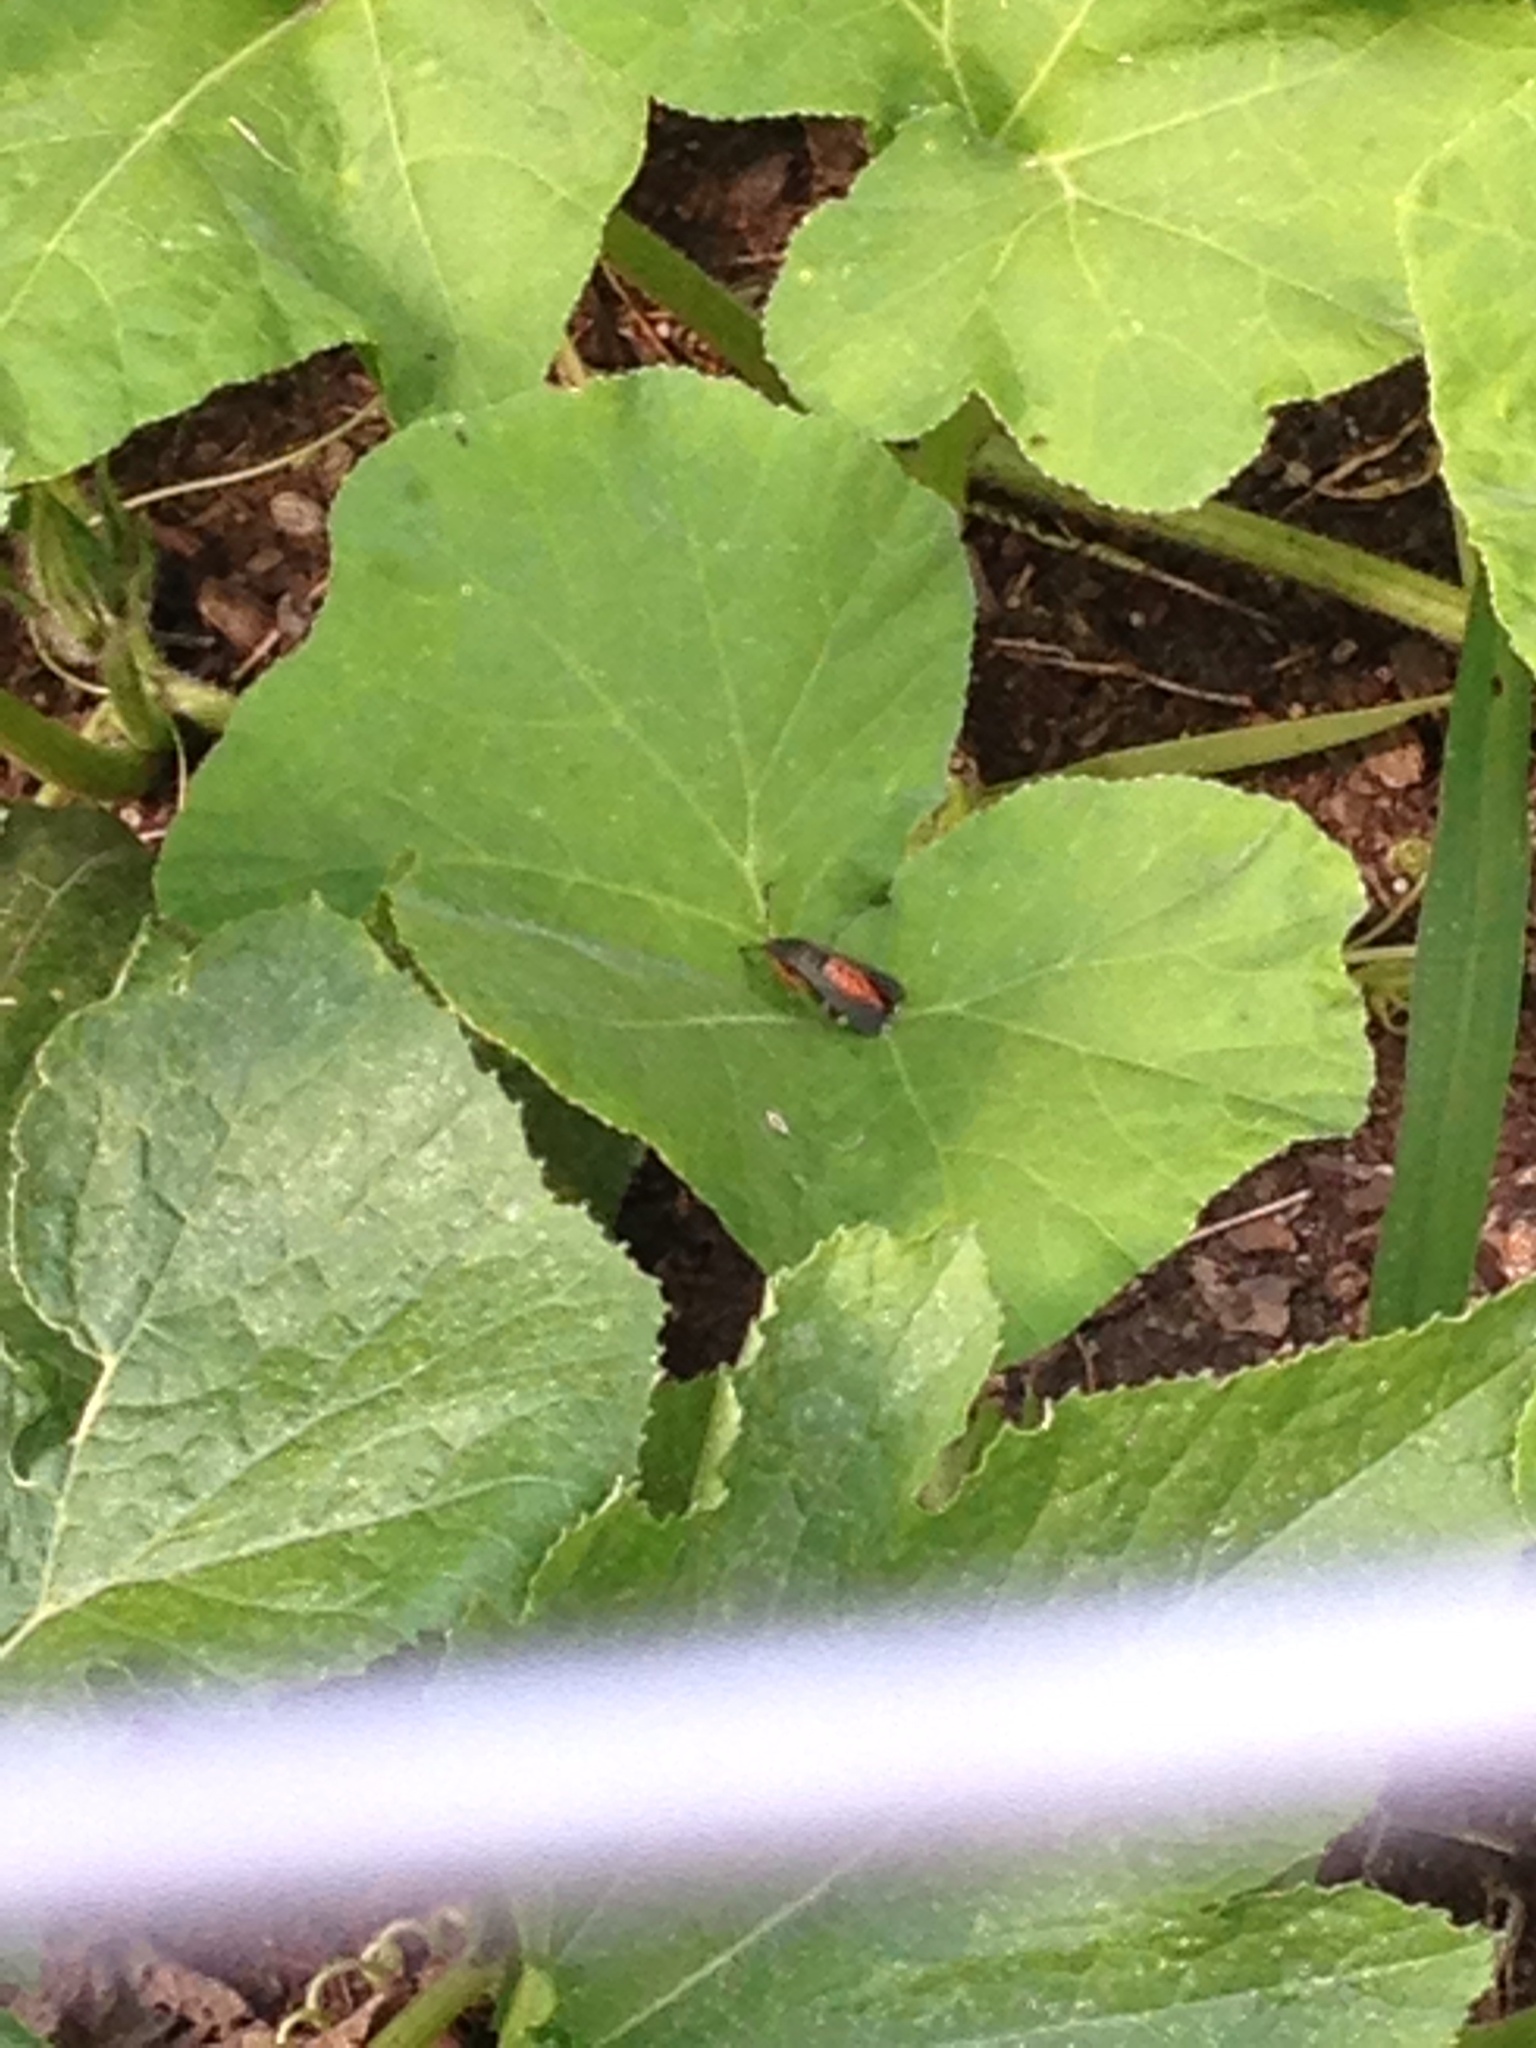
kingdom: Animalia
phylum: Arthropoda
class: Insecta
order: Lepidoptera
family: Sesiidae
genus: Eichlinia
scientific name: Eichlinia cucurbitae
